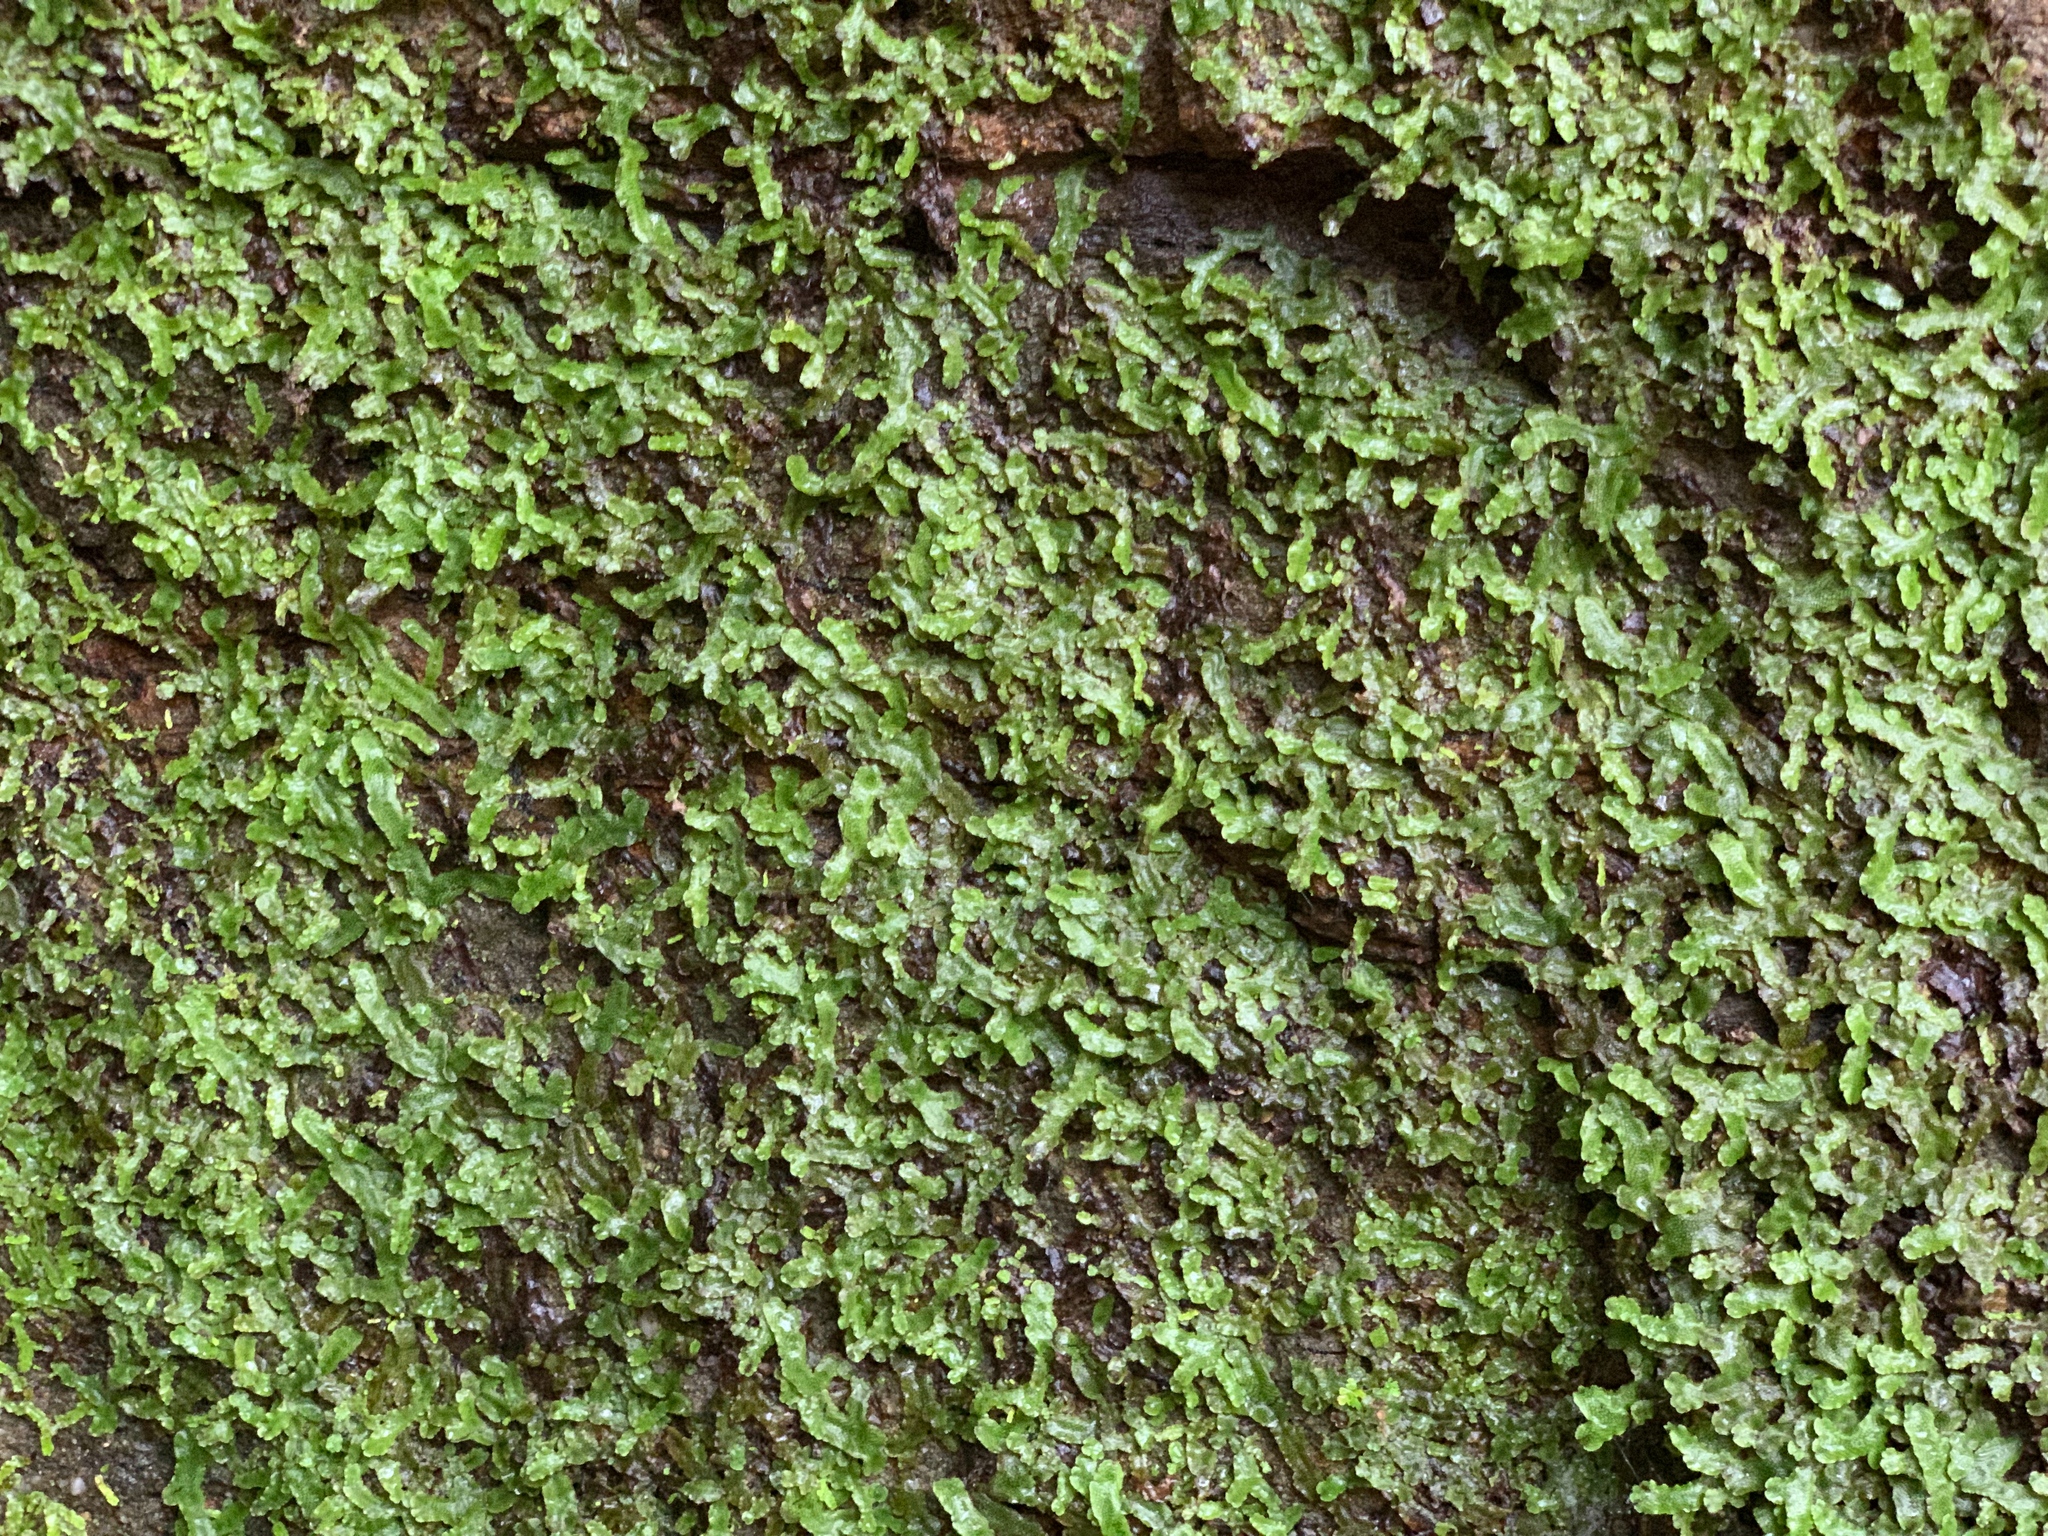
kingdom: Plantae
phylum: Marchantiophyta
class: Marchantiopsida
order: Marchantiales
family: Conocephalaceae
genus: Conocephalum
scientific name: Conocephalum salebrosum
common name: Cat-tongue liverwort
